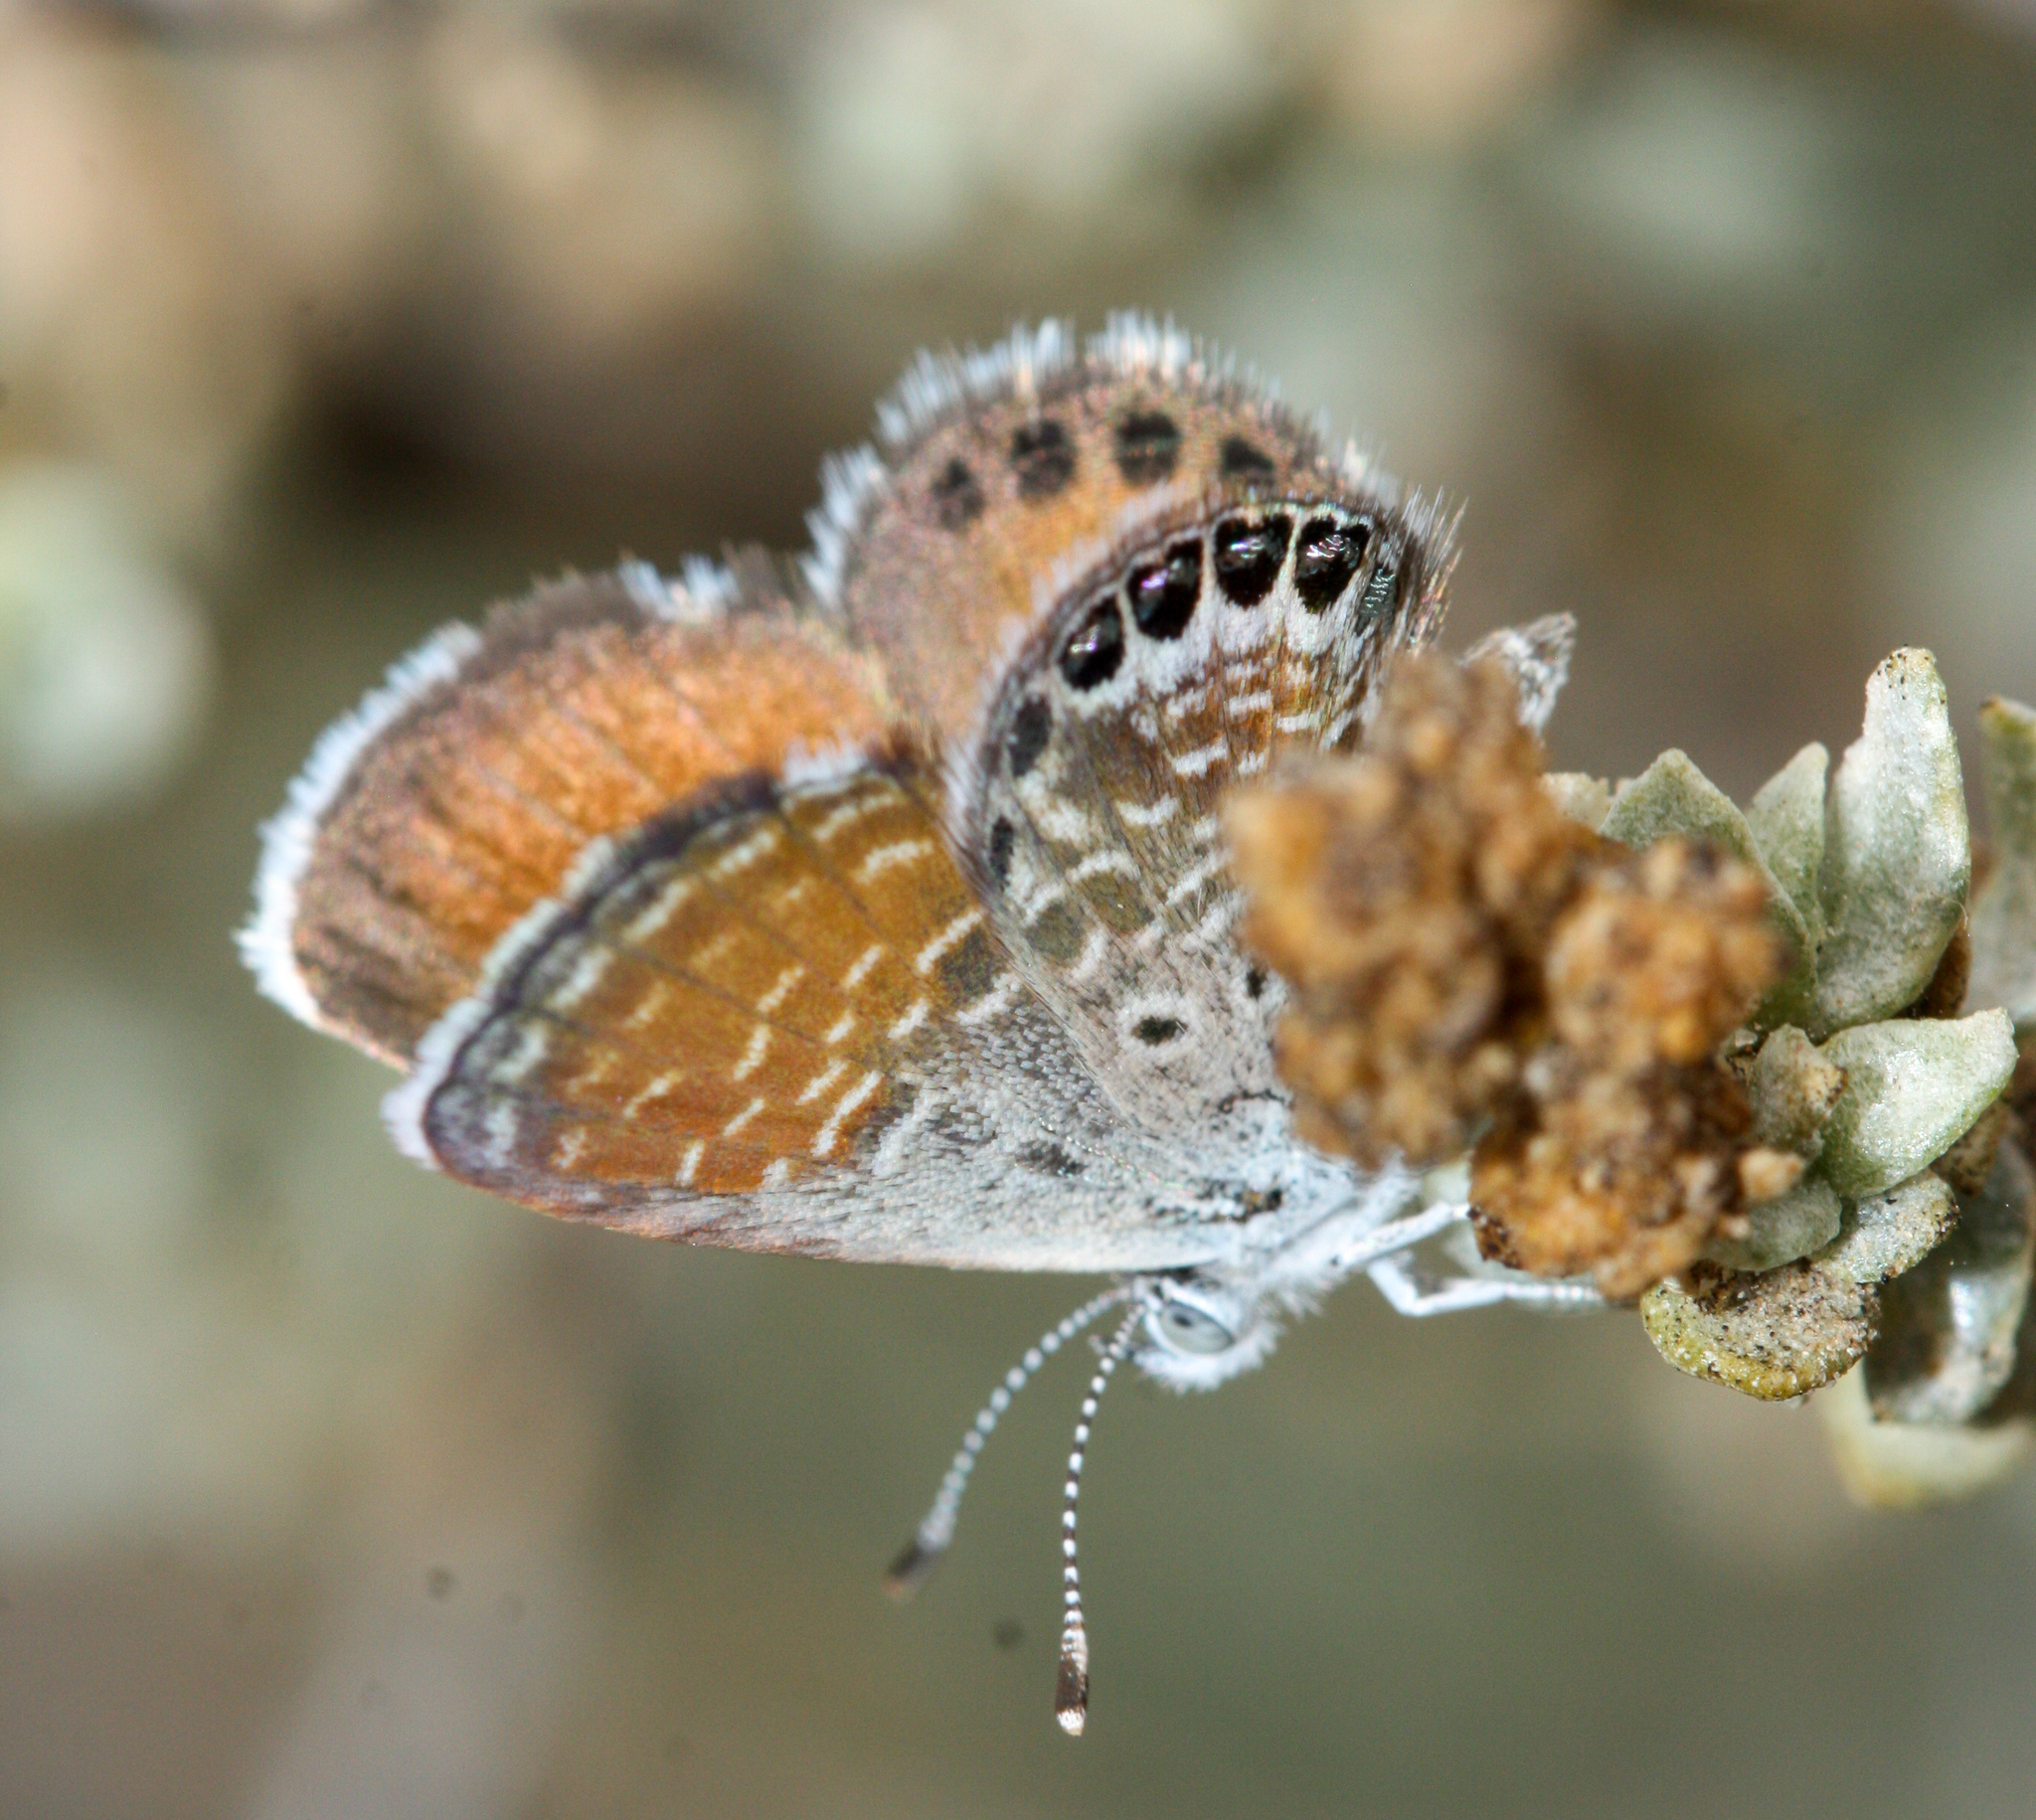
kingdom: Animalia
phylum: Arthropoda
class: Insecta
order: Lepidoptera
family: Lycaenidae
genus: Brephidium
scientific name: Brephidium exilis
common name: Pygmy blue
